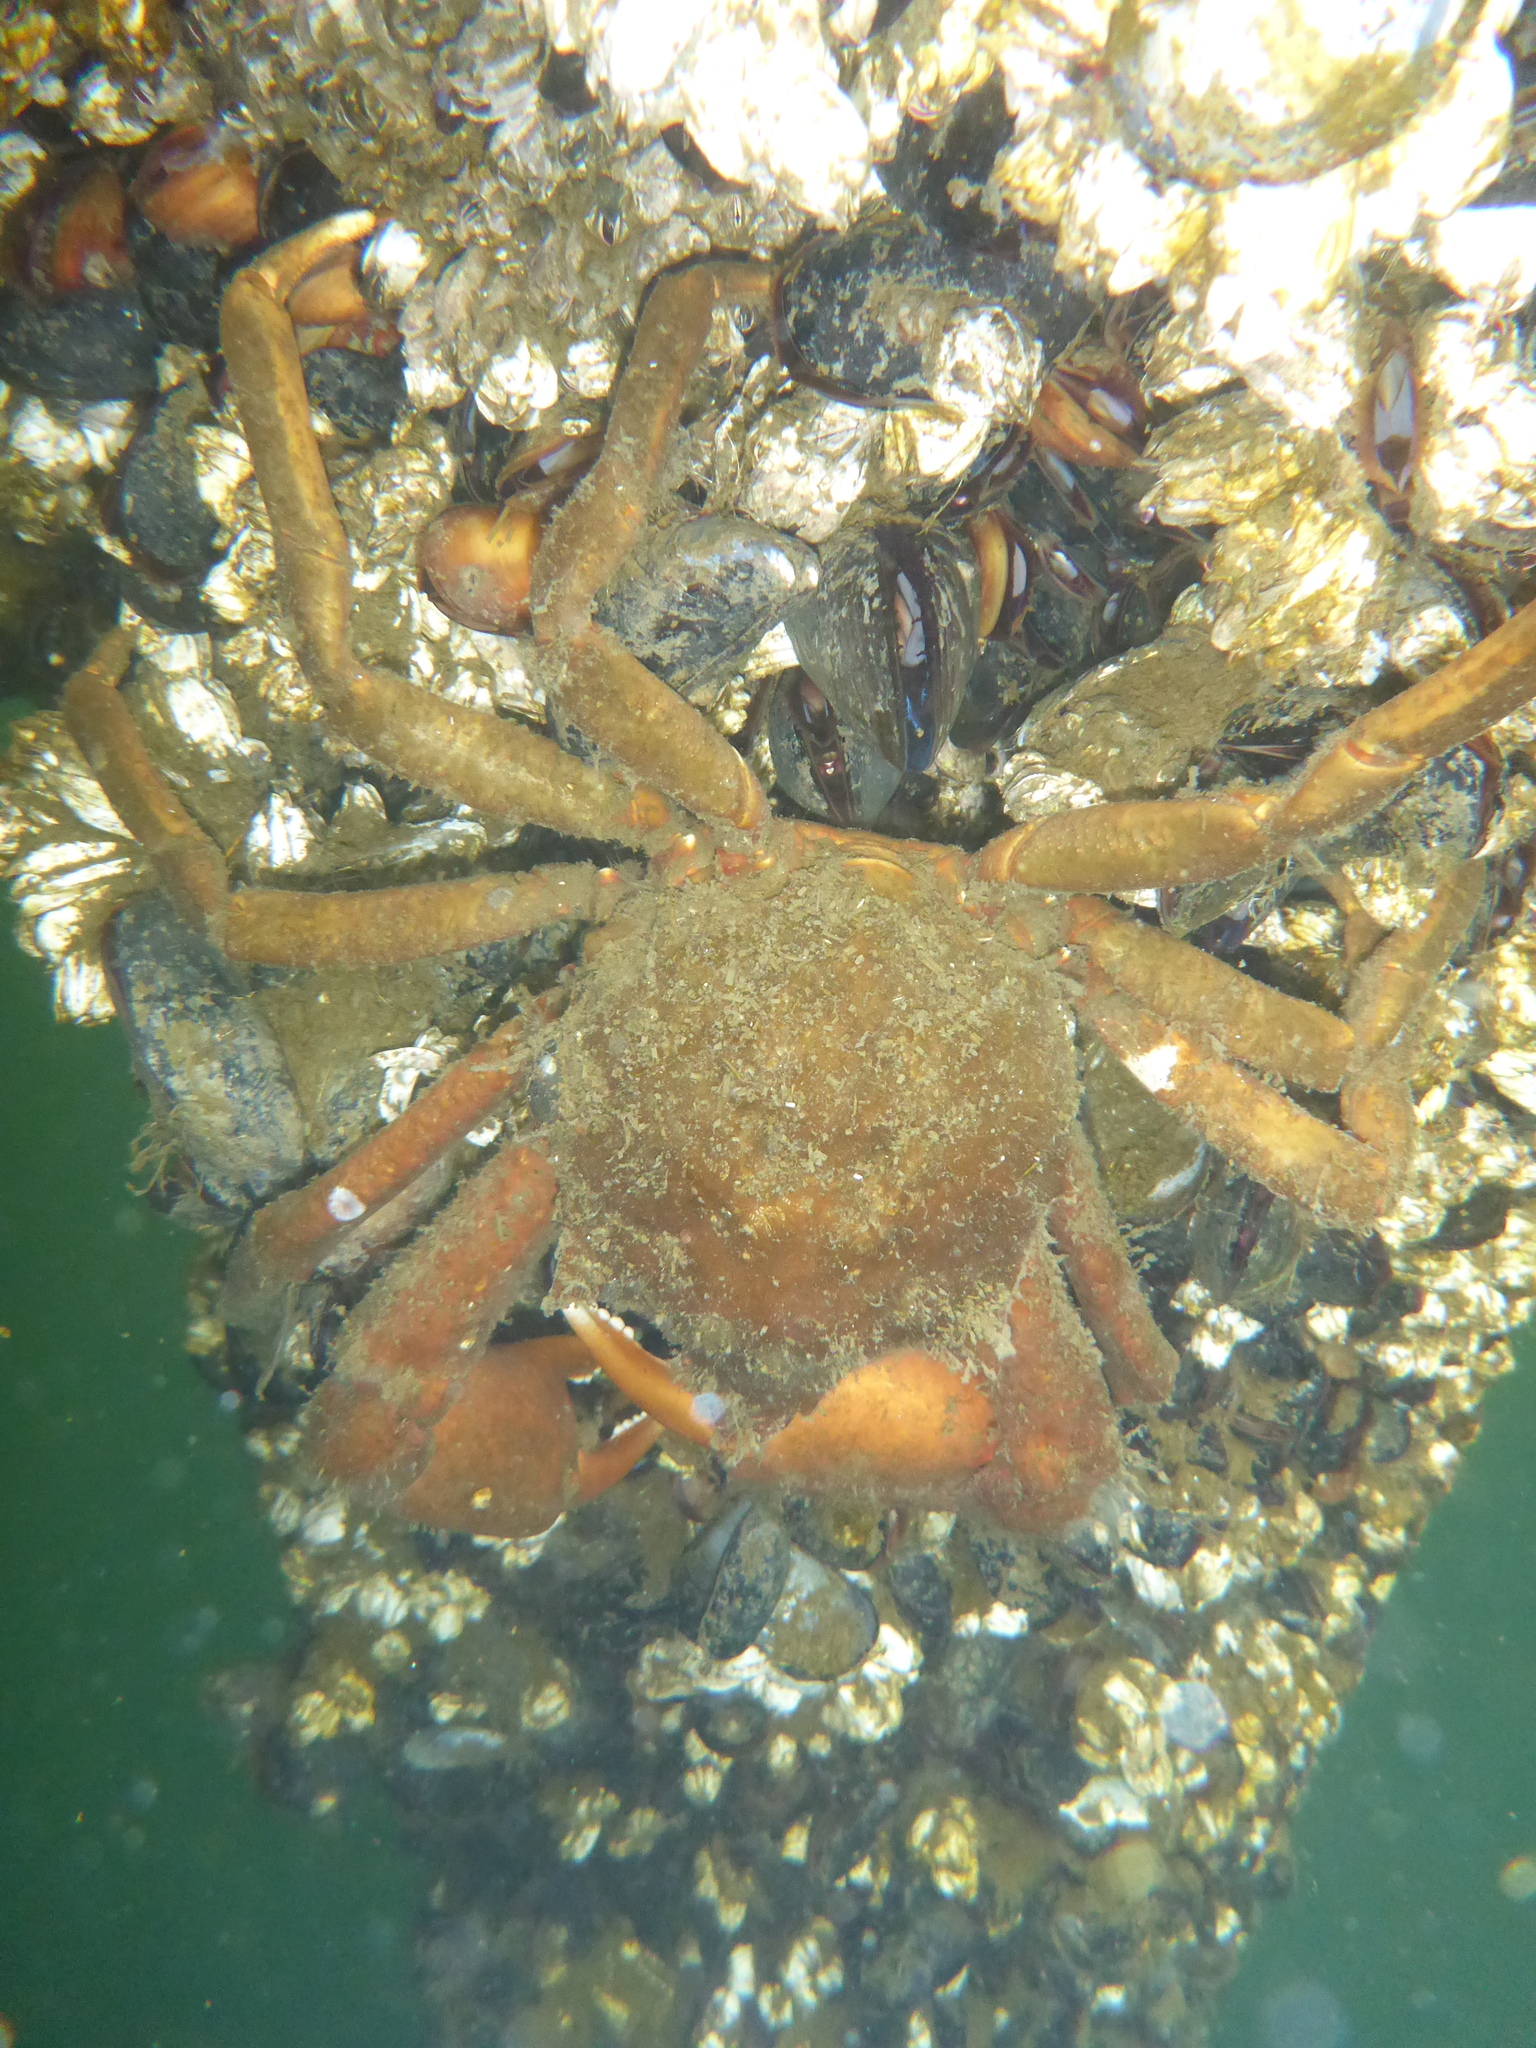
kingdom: Animalia
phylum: Arthropoda
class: Malacostraca
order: Decapoda
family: Epialtidae
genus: Pugettia
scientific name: Pugettia producta
